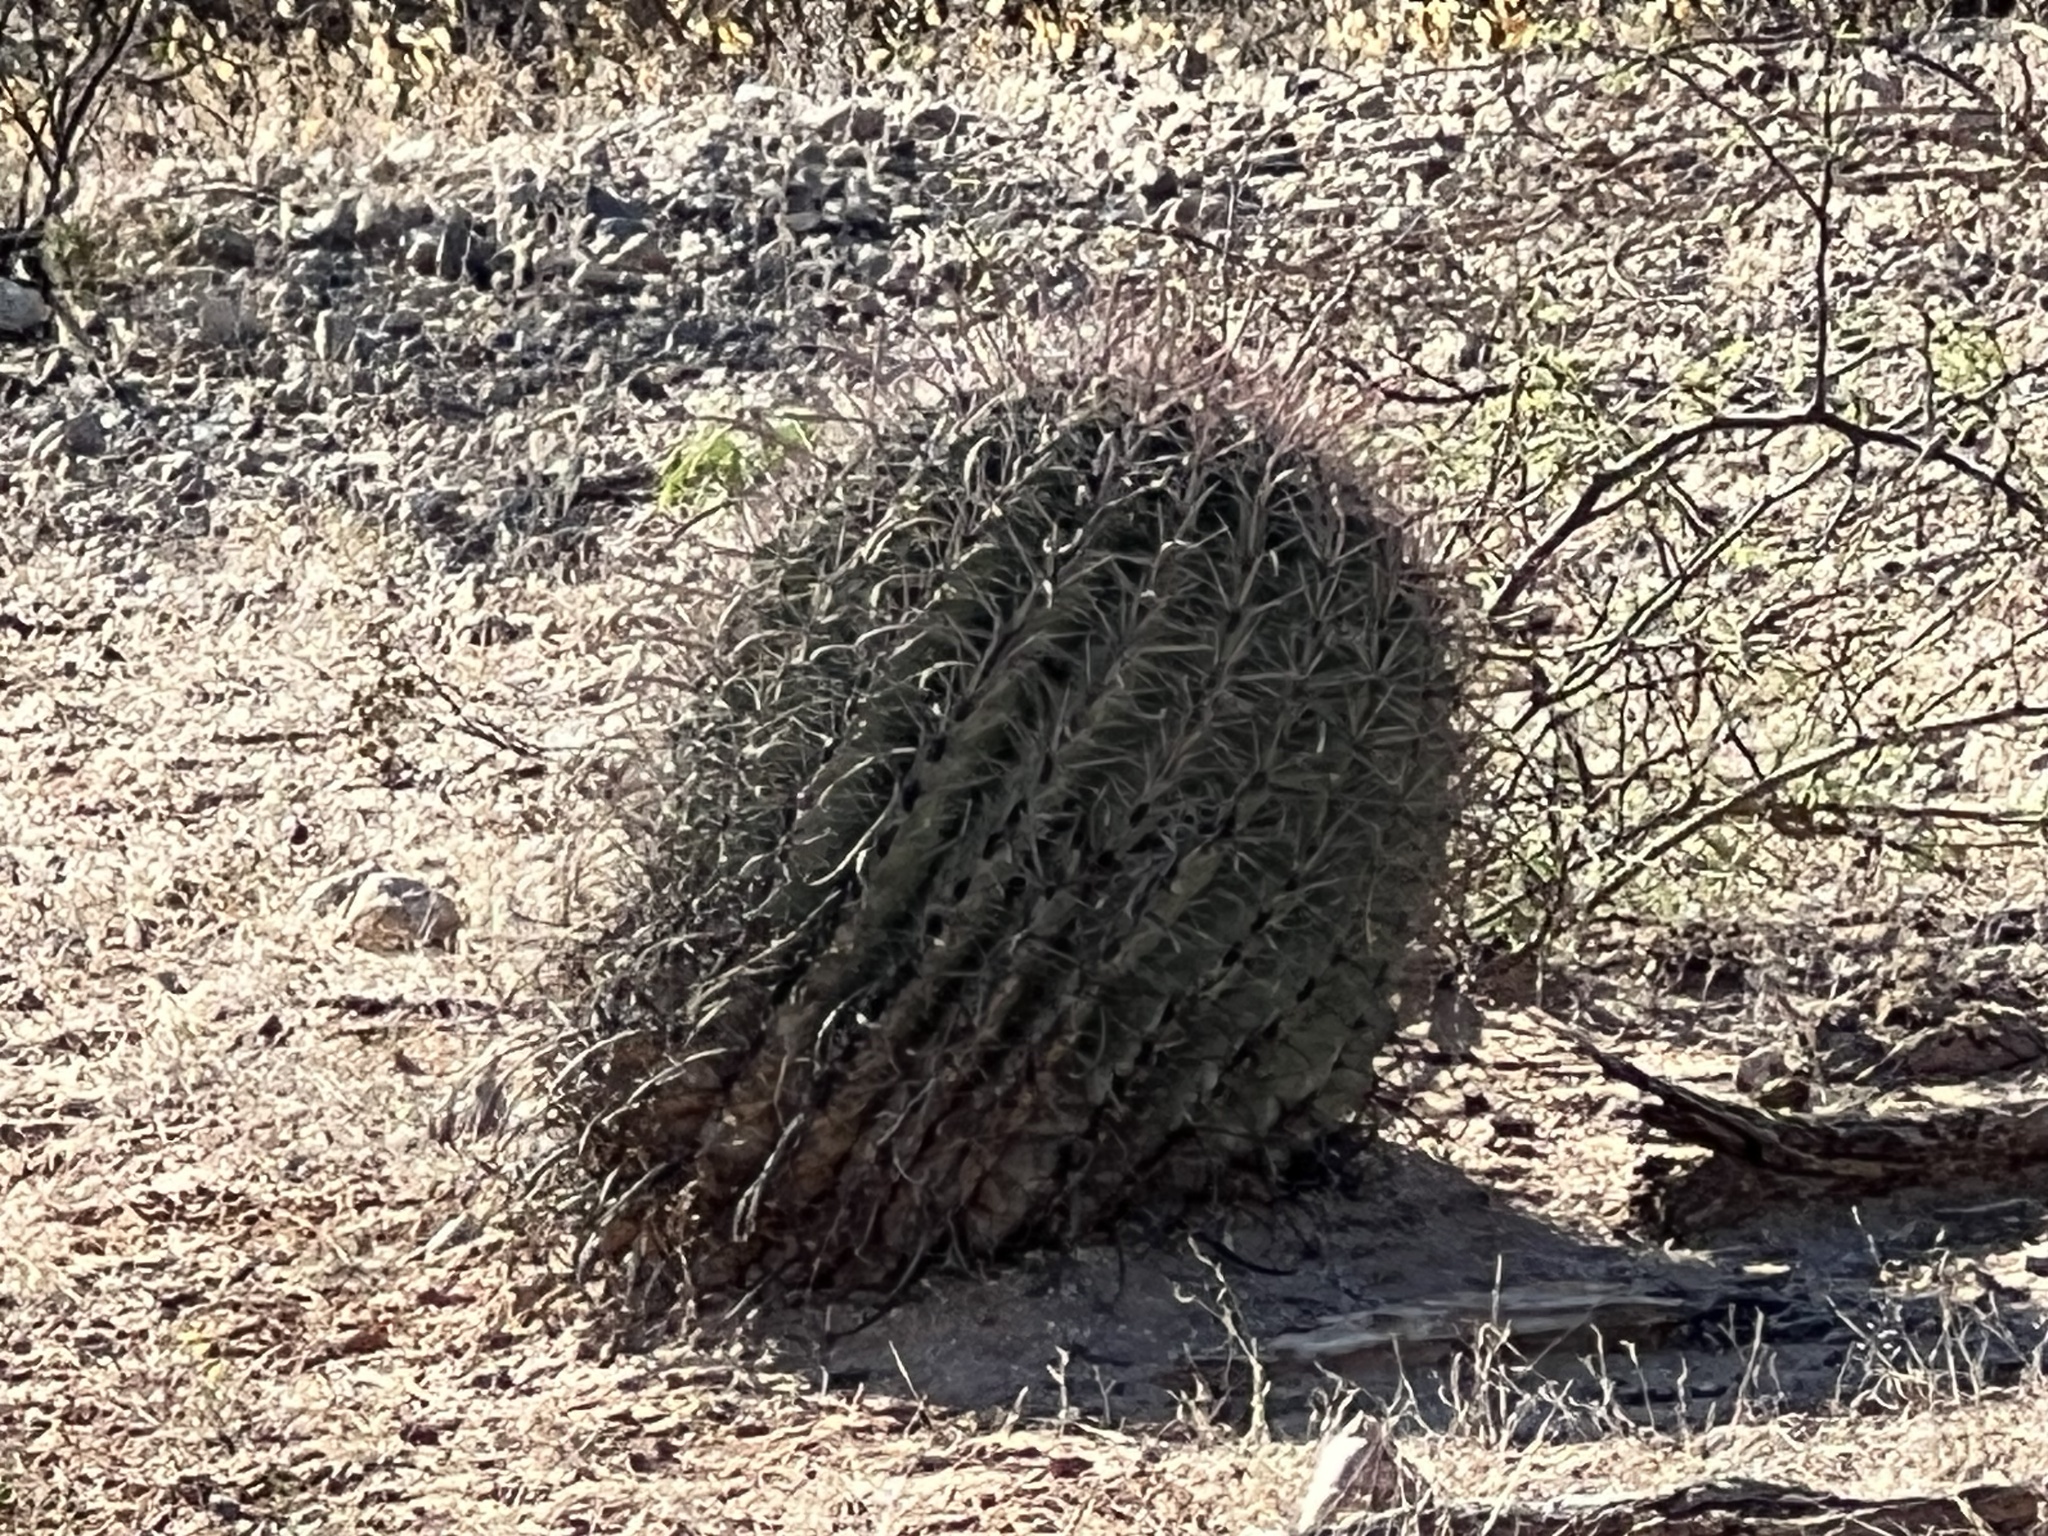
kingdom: Plantae
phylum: Tracheophyta
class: Magnoliopsida
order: Caryophyllales
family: Cactaceae
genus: Ferocactus
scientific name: Ferocactus wislizeni
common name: Candy barrel cactus
